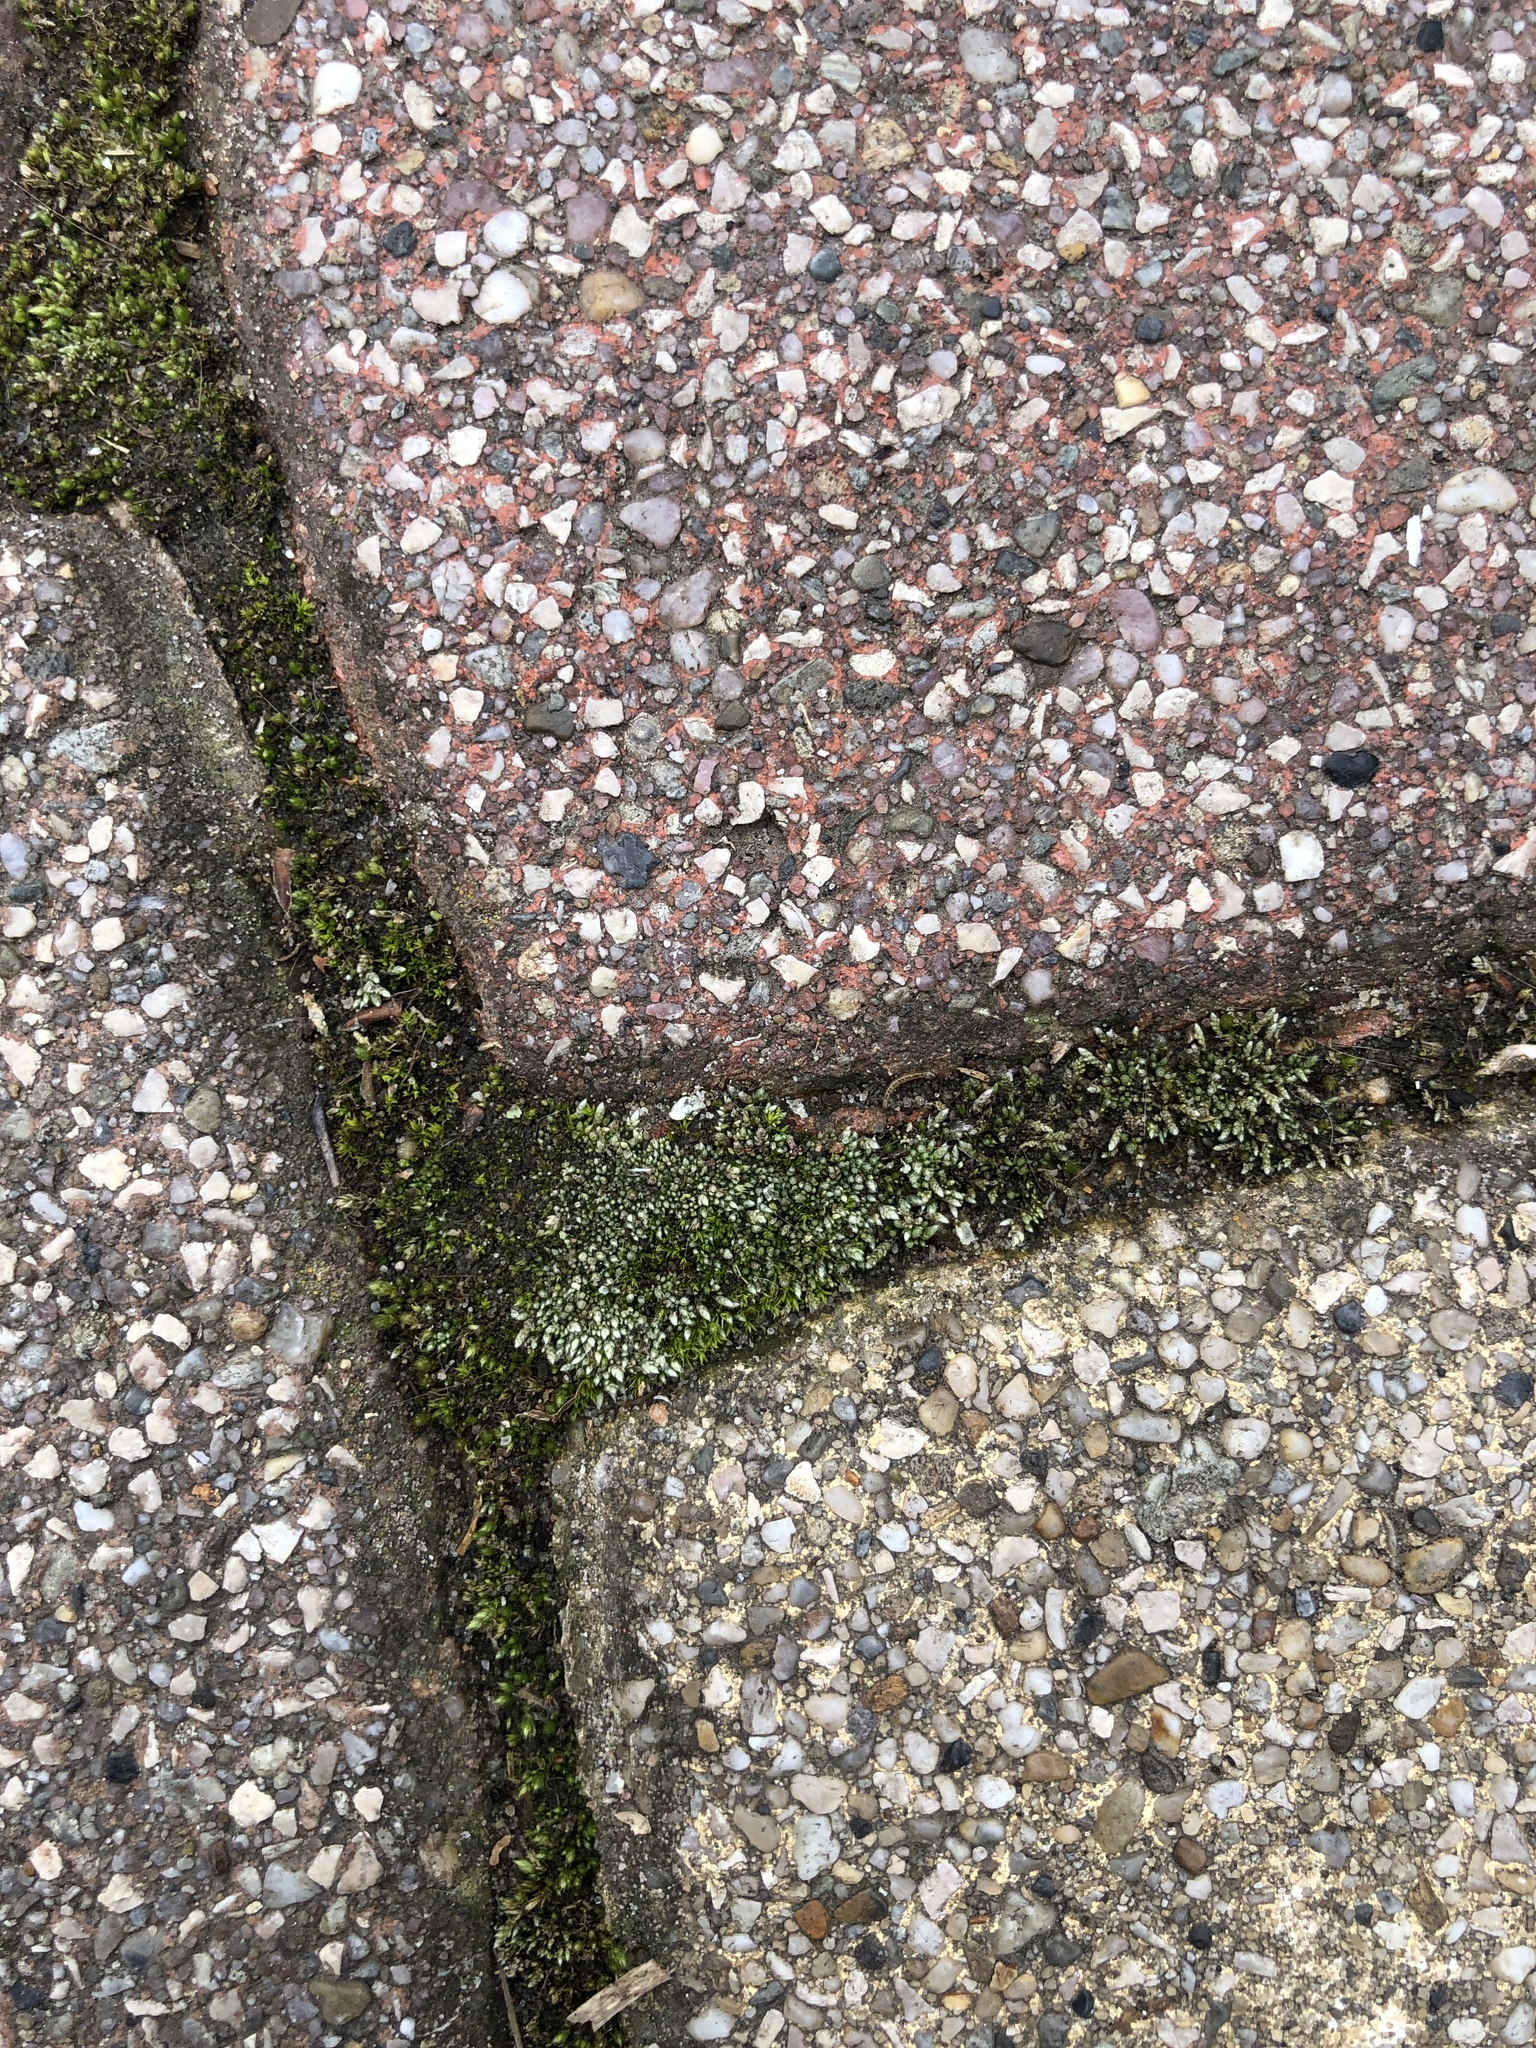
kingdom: Plantae
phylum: Bryophyta
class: Bryopsida
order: Bryales
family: Bryaceae
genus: Bryum
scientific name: Bryum argenteum
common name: Silver-moss
